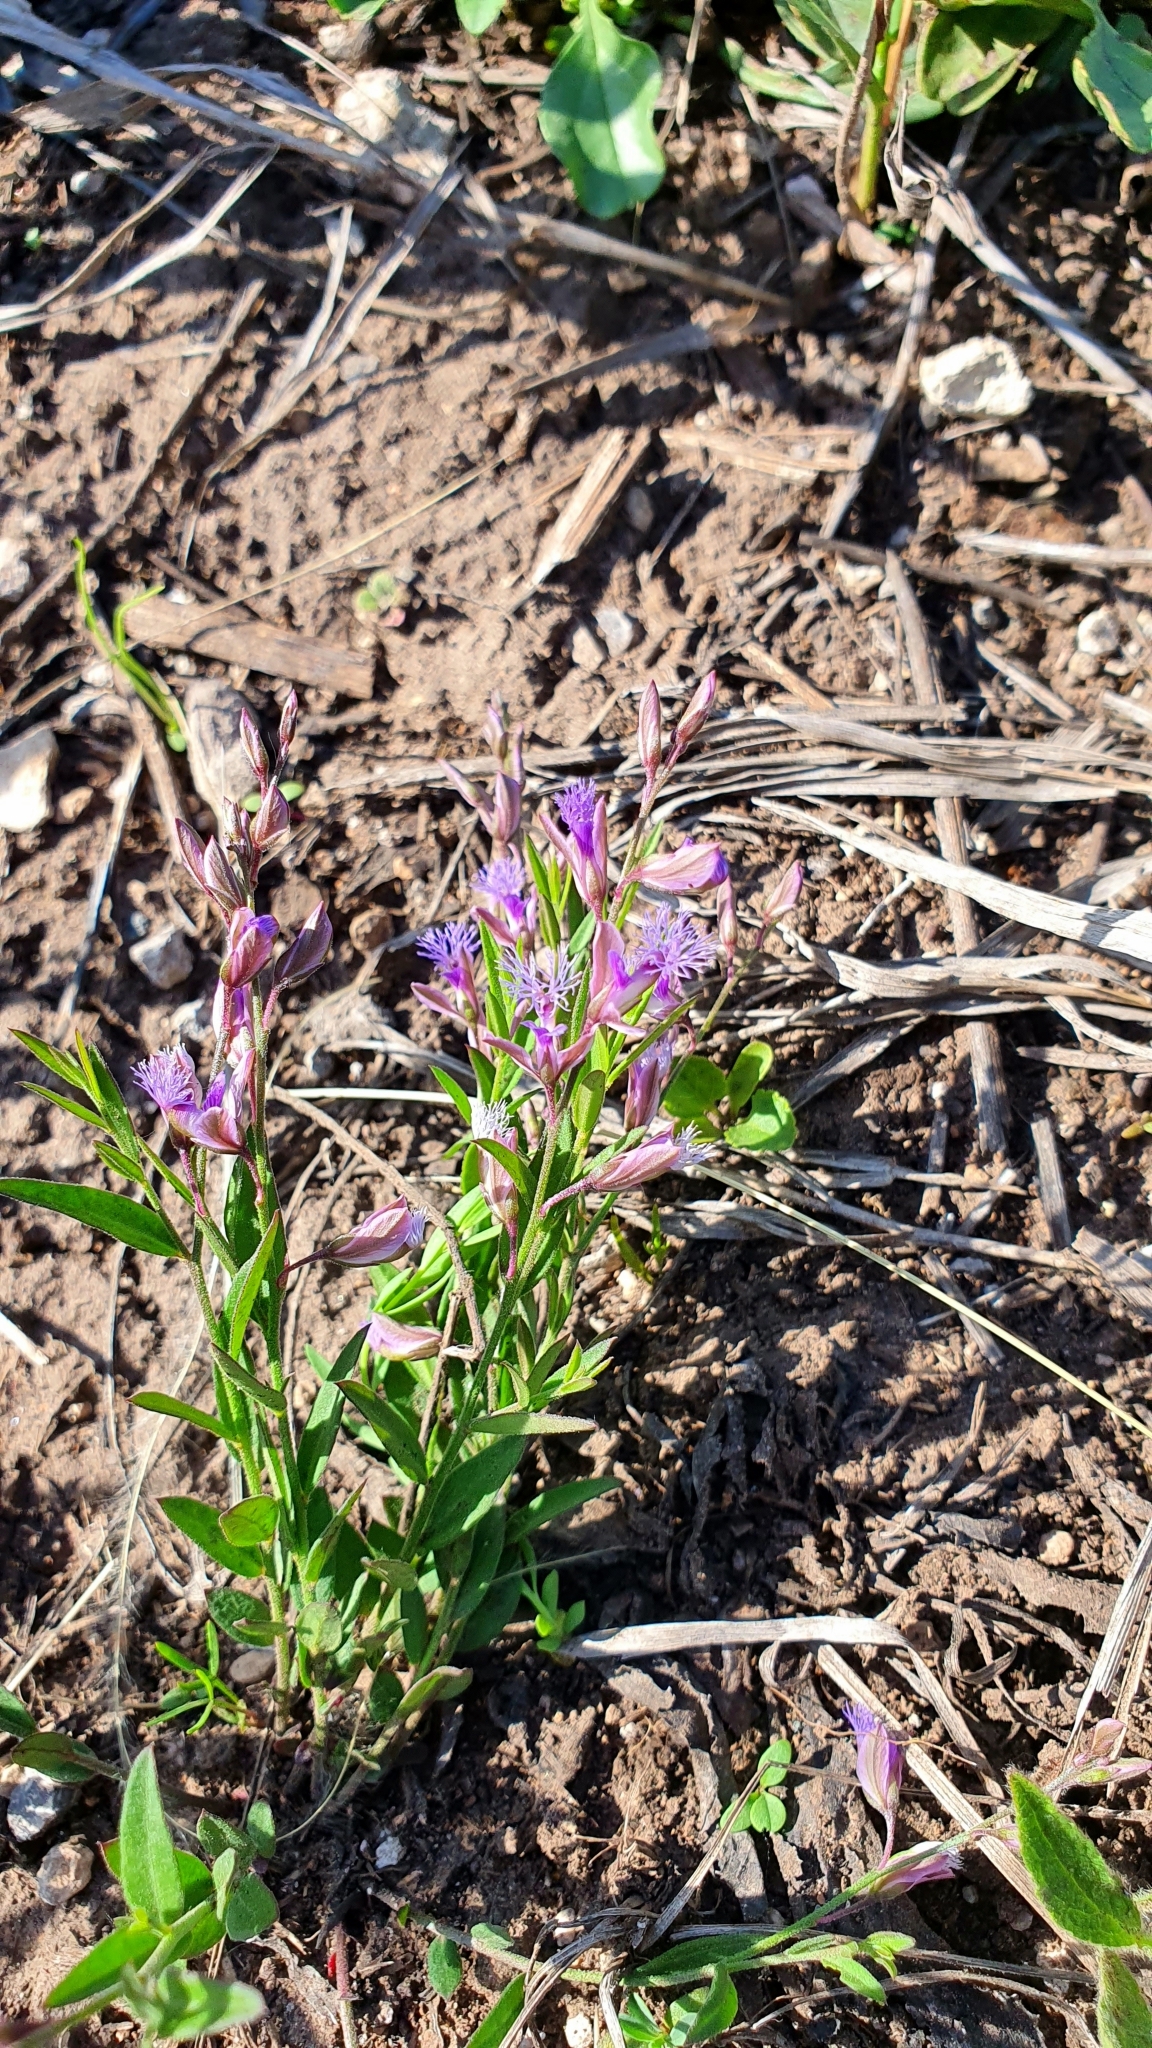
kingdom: Plantae
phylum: Tracheophyta
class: Magnoliopsida
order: Fabales
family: Polygalaceae
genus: Polygala
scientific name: Polygala sibirica
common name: Siberian polygala
